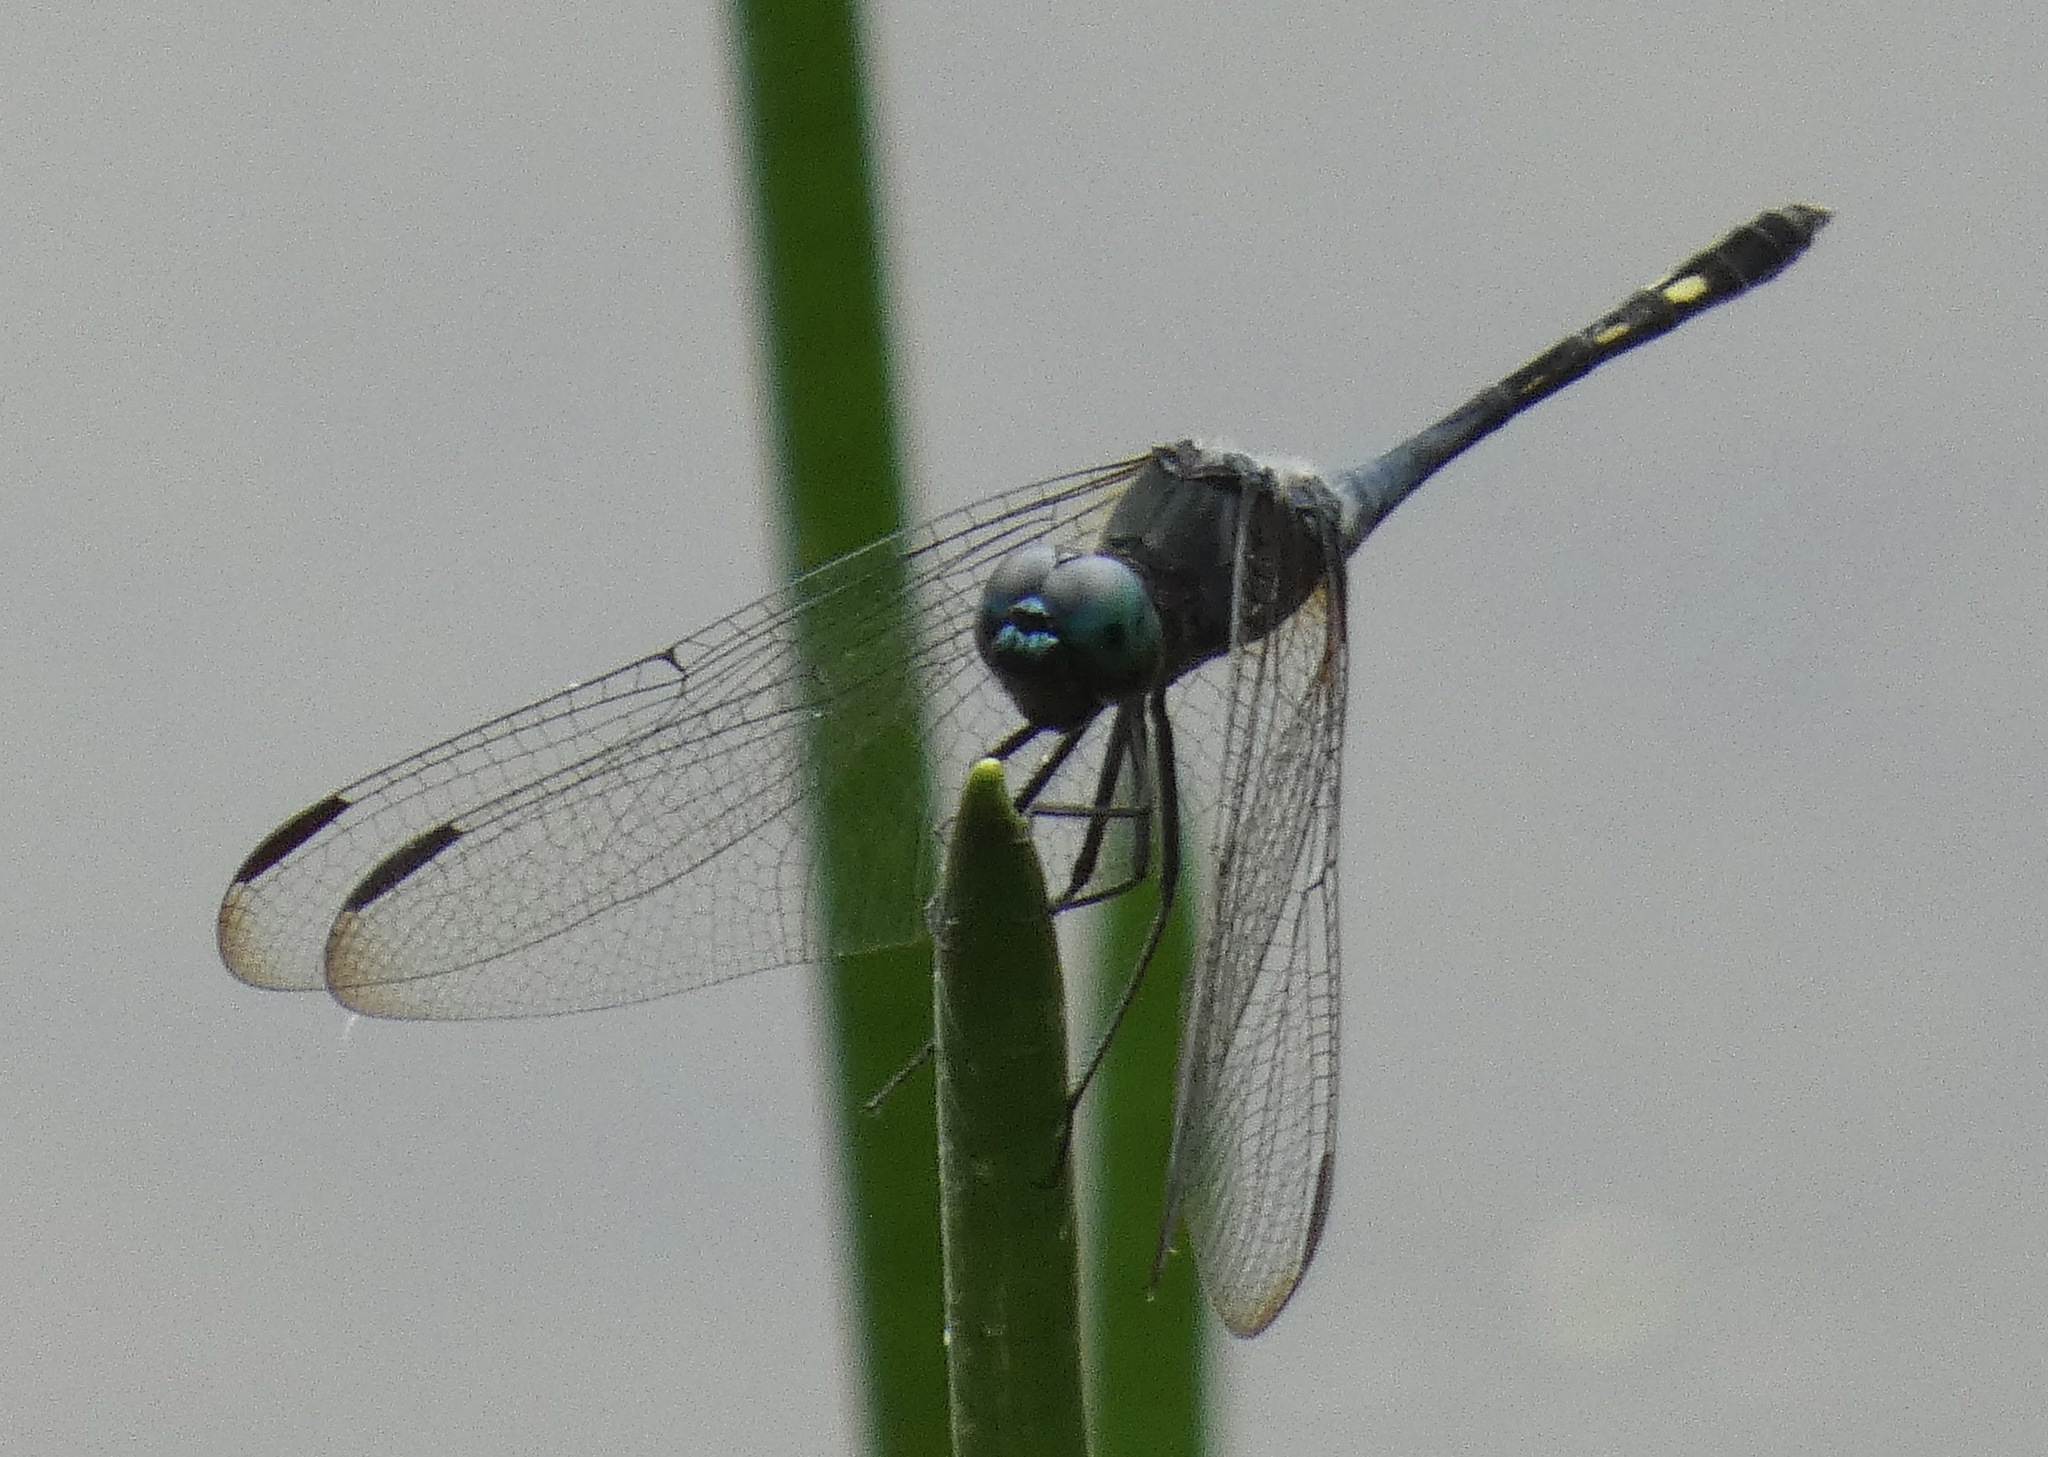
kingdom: Animalia
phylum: Arthropoda
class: Insecta
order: Odonata
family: Libellulidae
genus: Micrathyria
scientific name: Micrathyria artemis
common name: Artemis dasher
